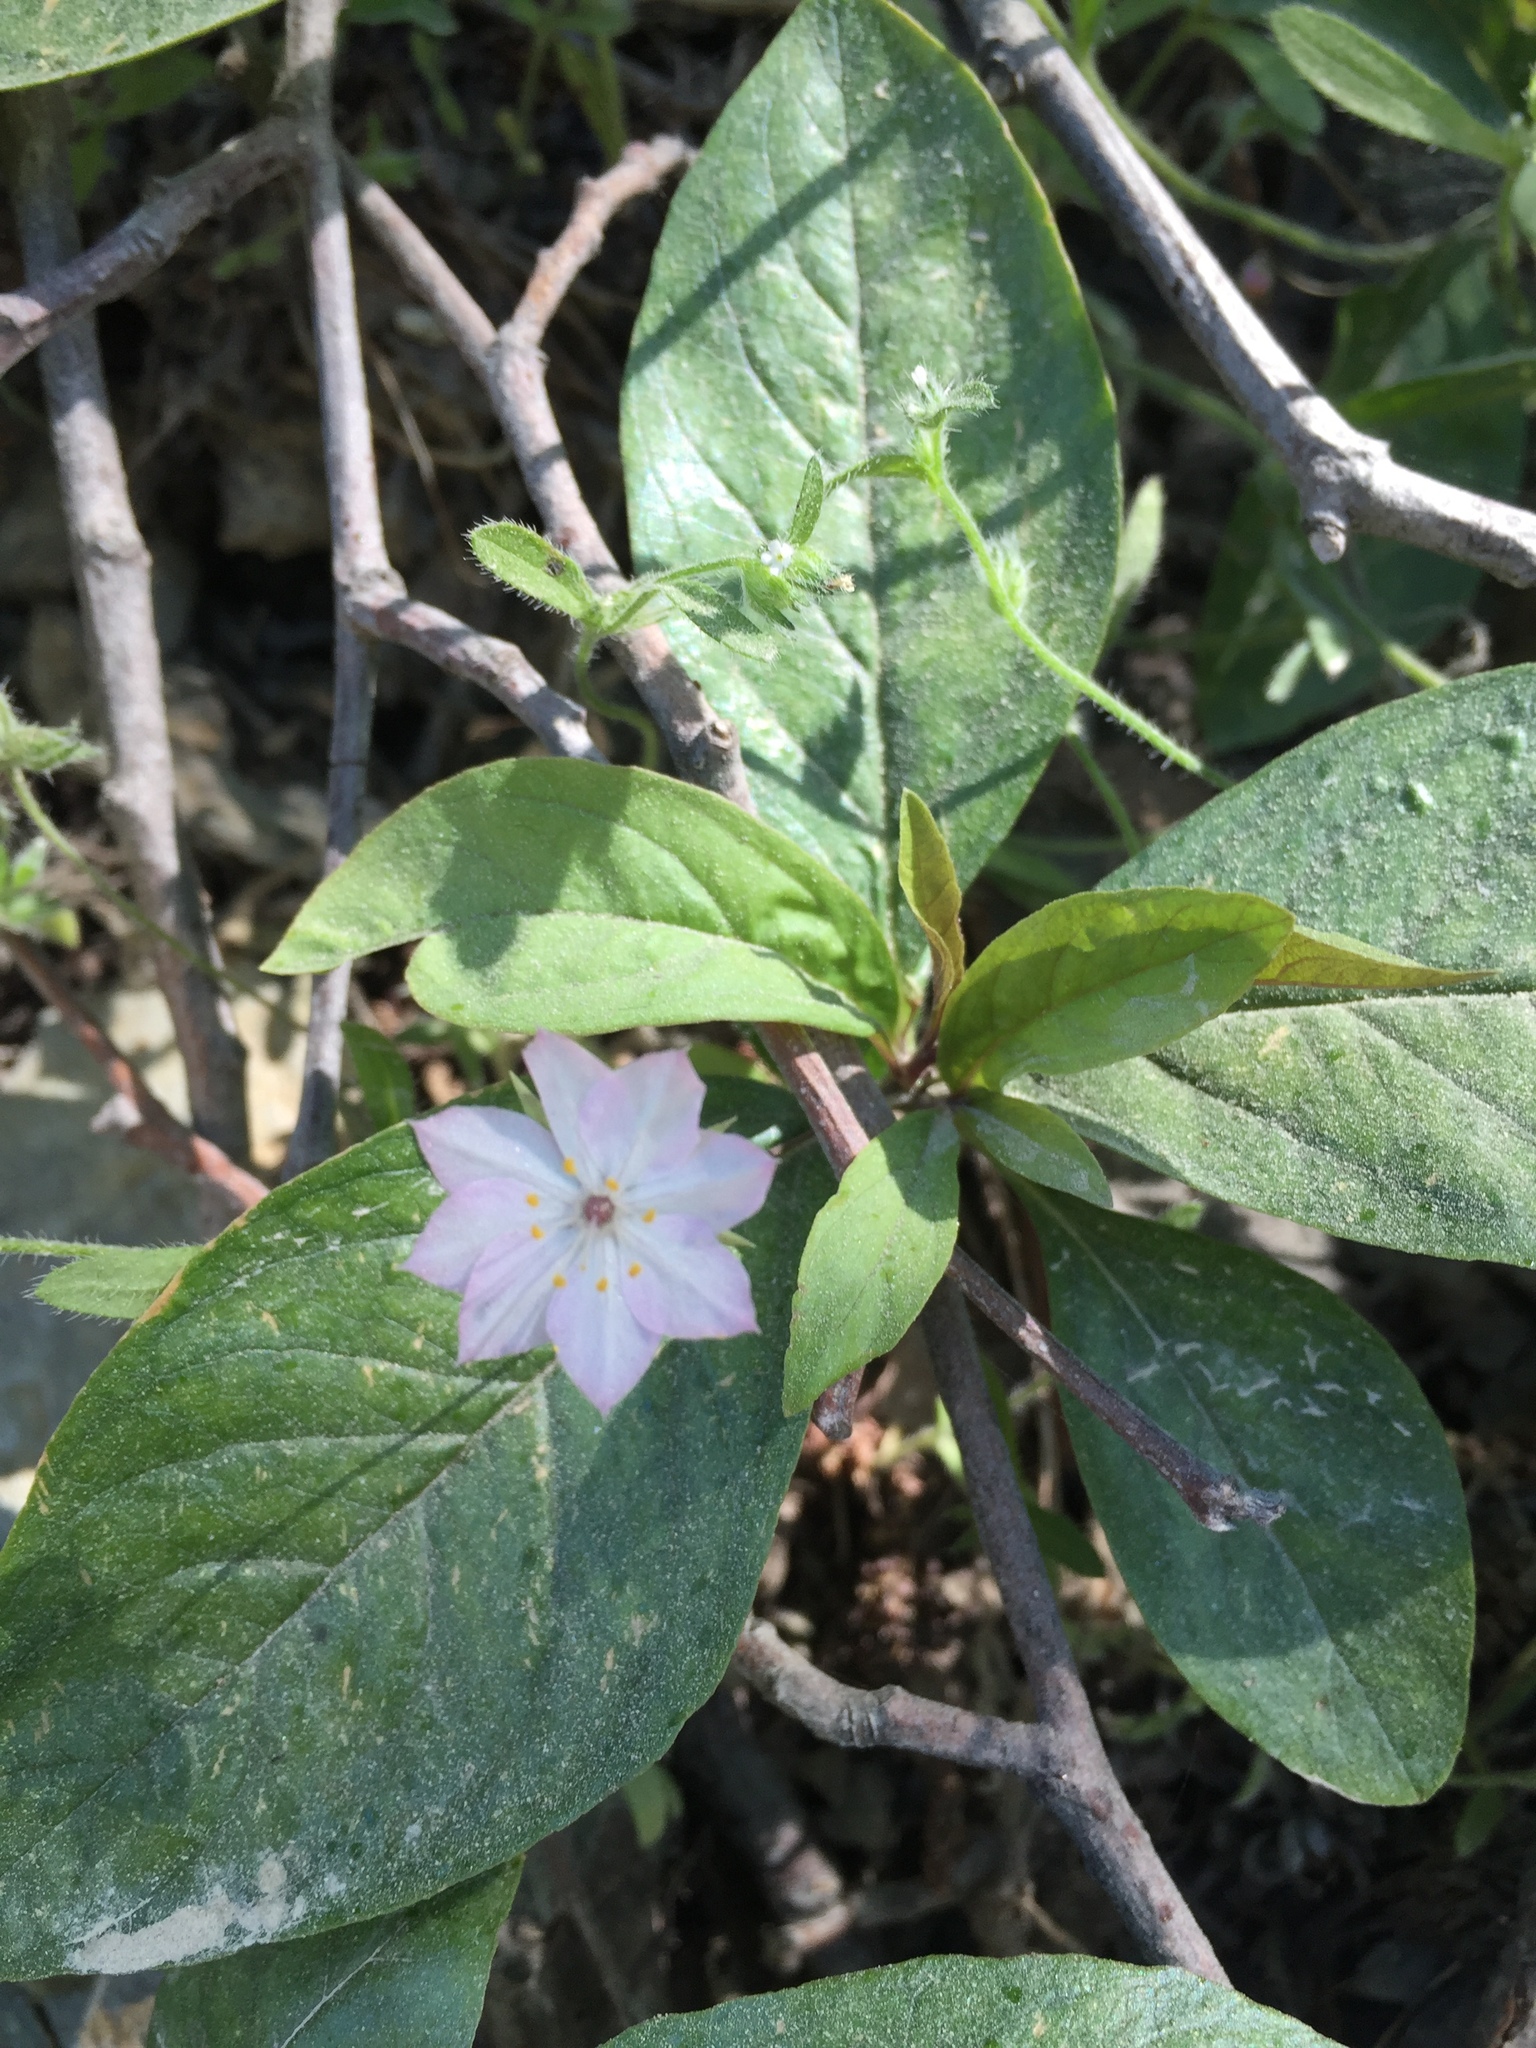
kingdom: Plantae
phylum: Tracheophyta
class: Magnoliopsida
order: Ericales
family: Primulaceae
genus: Lysimachia
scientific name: Lysimachia latifolia
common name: Pacific starflower
